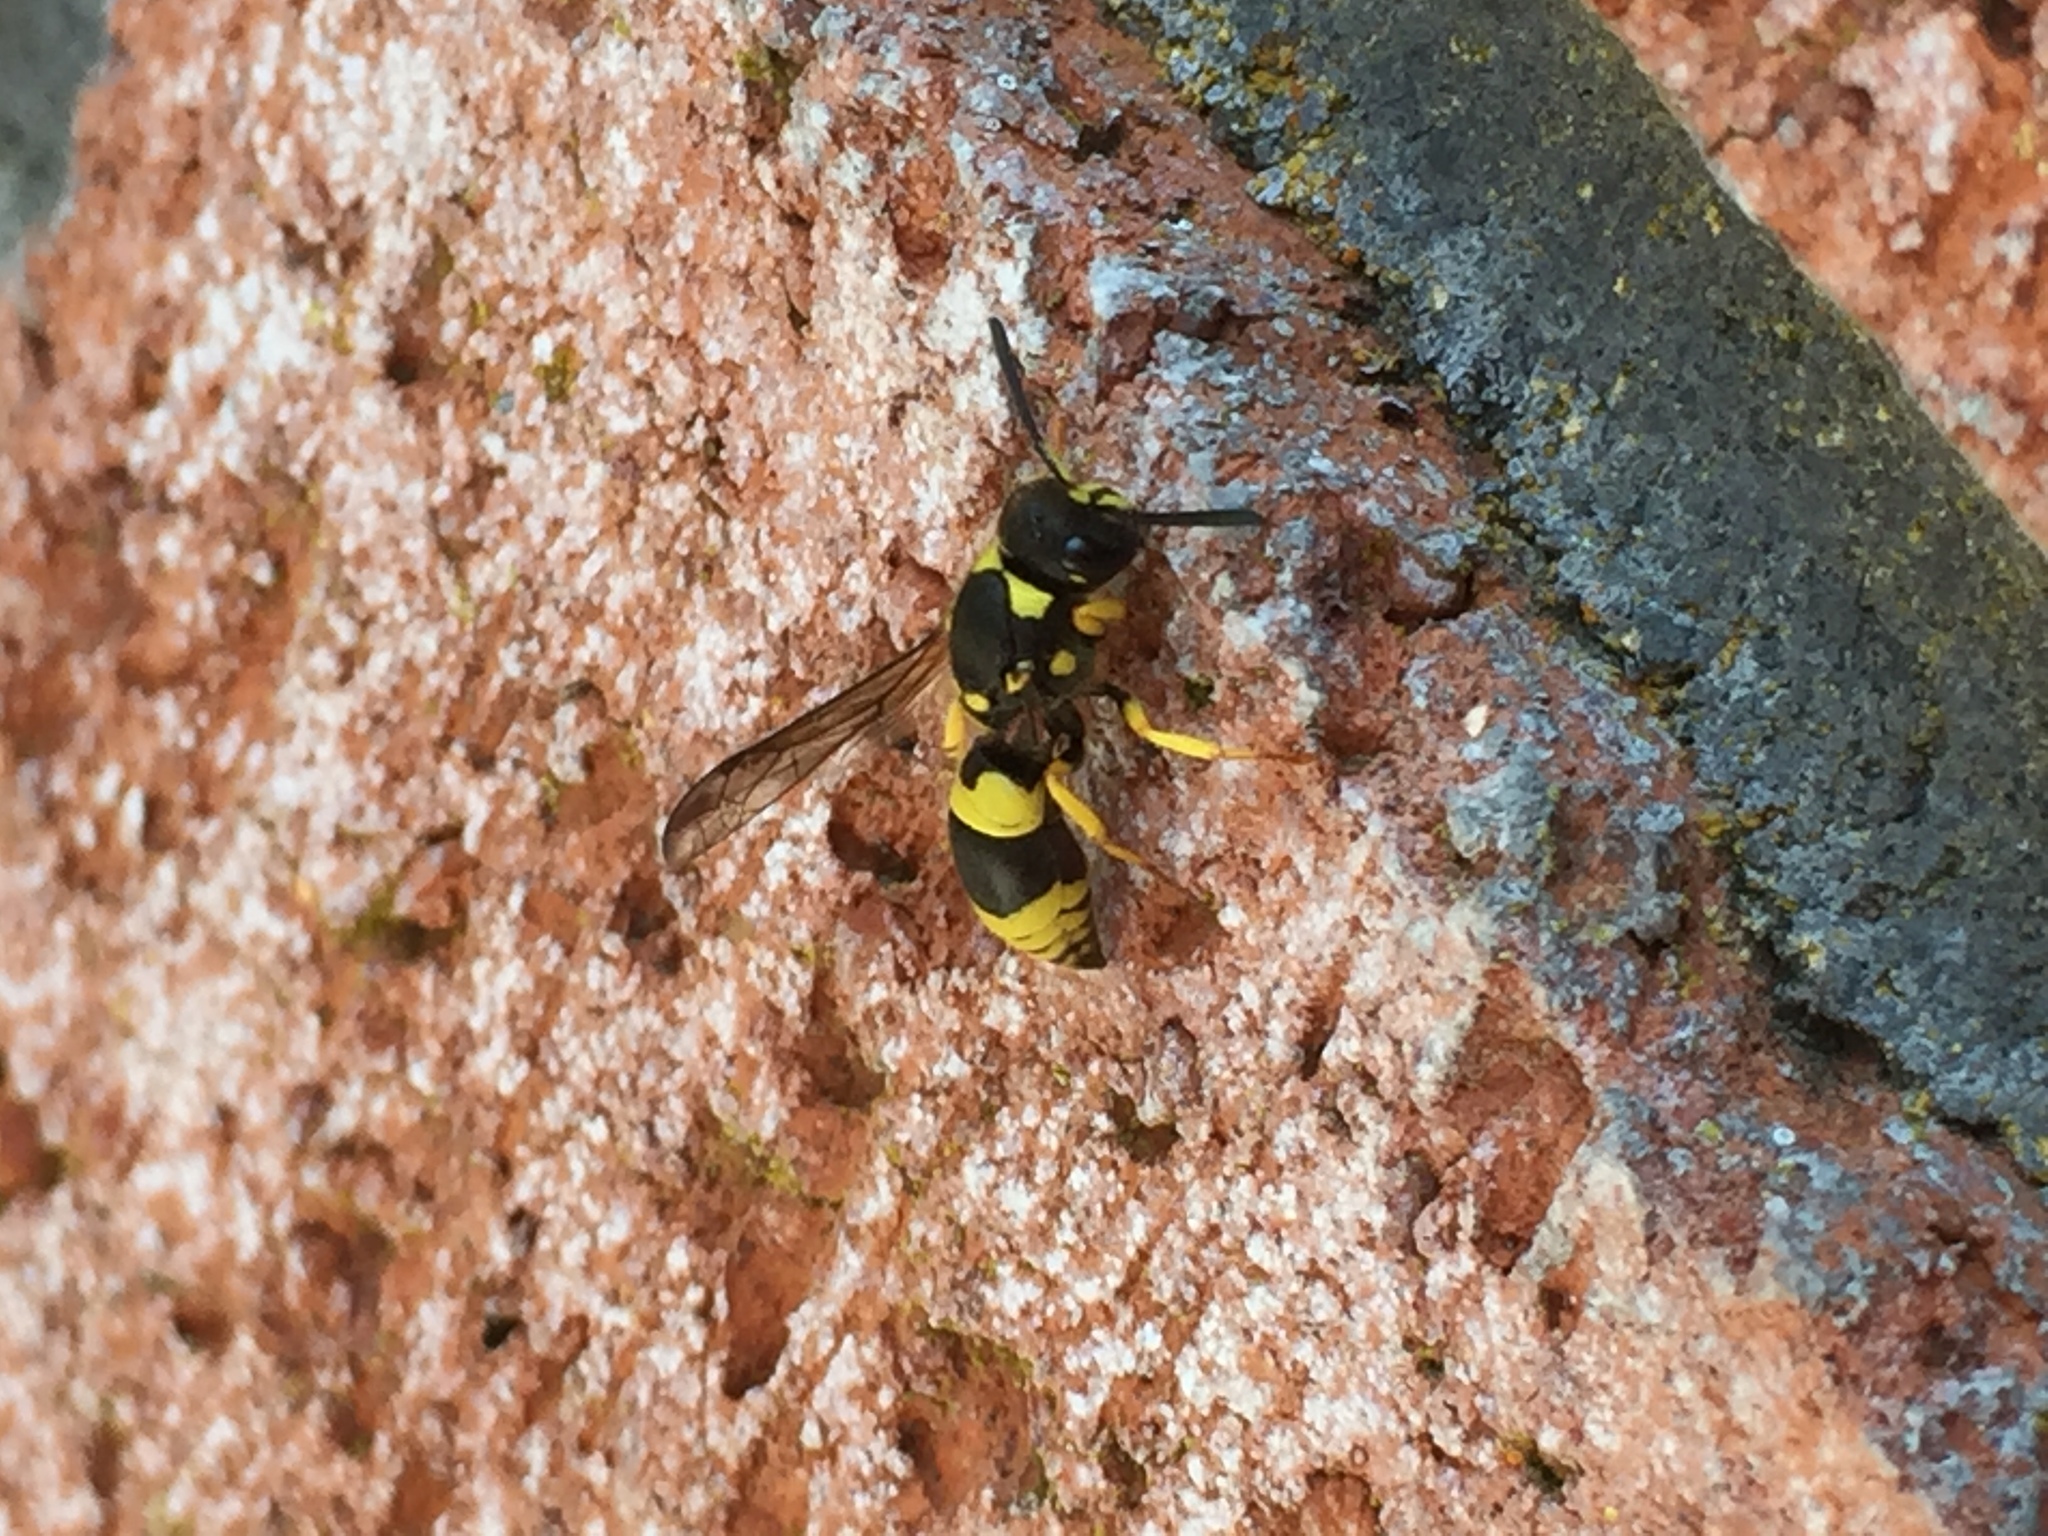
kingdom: Animalia
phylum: Arthropoda
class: Insecta
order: Hymenoptera
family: Vespidae
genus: Ancistrocerus
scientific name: Ancistrocerus gazella
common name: European tube wasp
